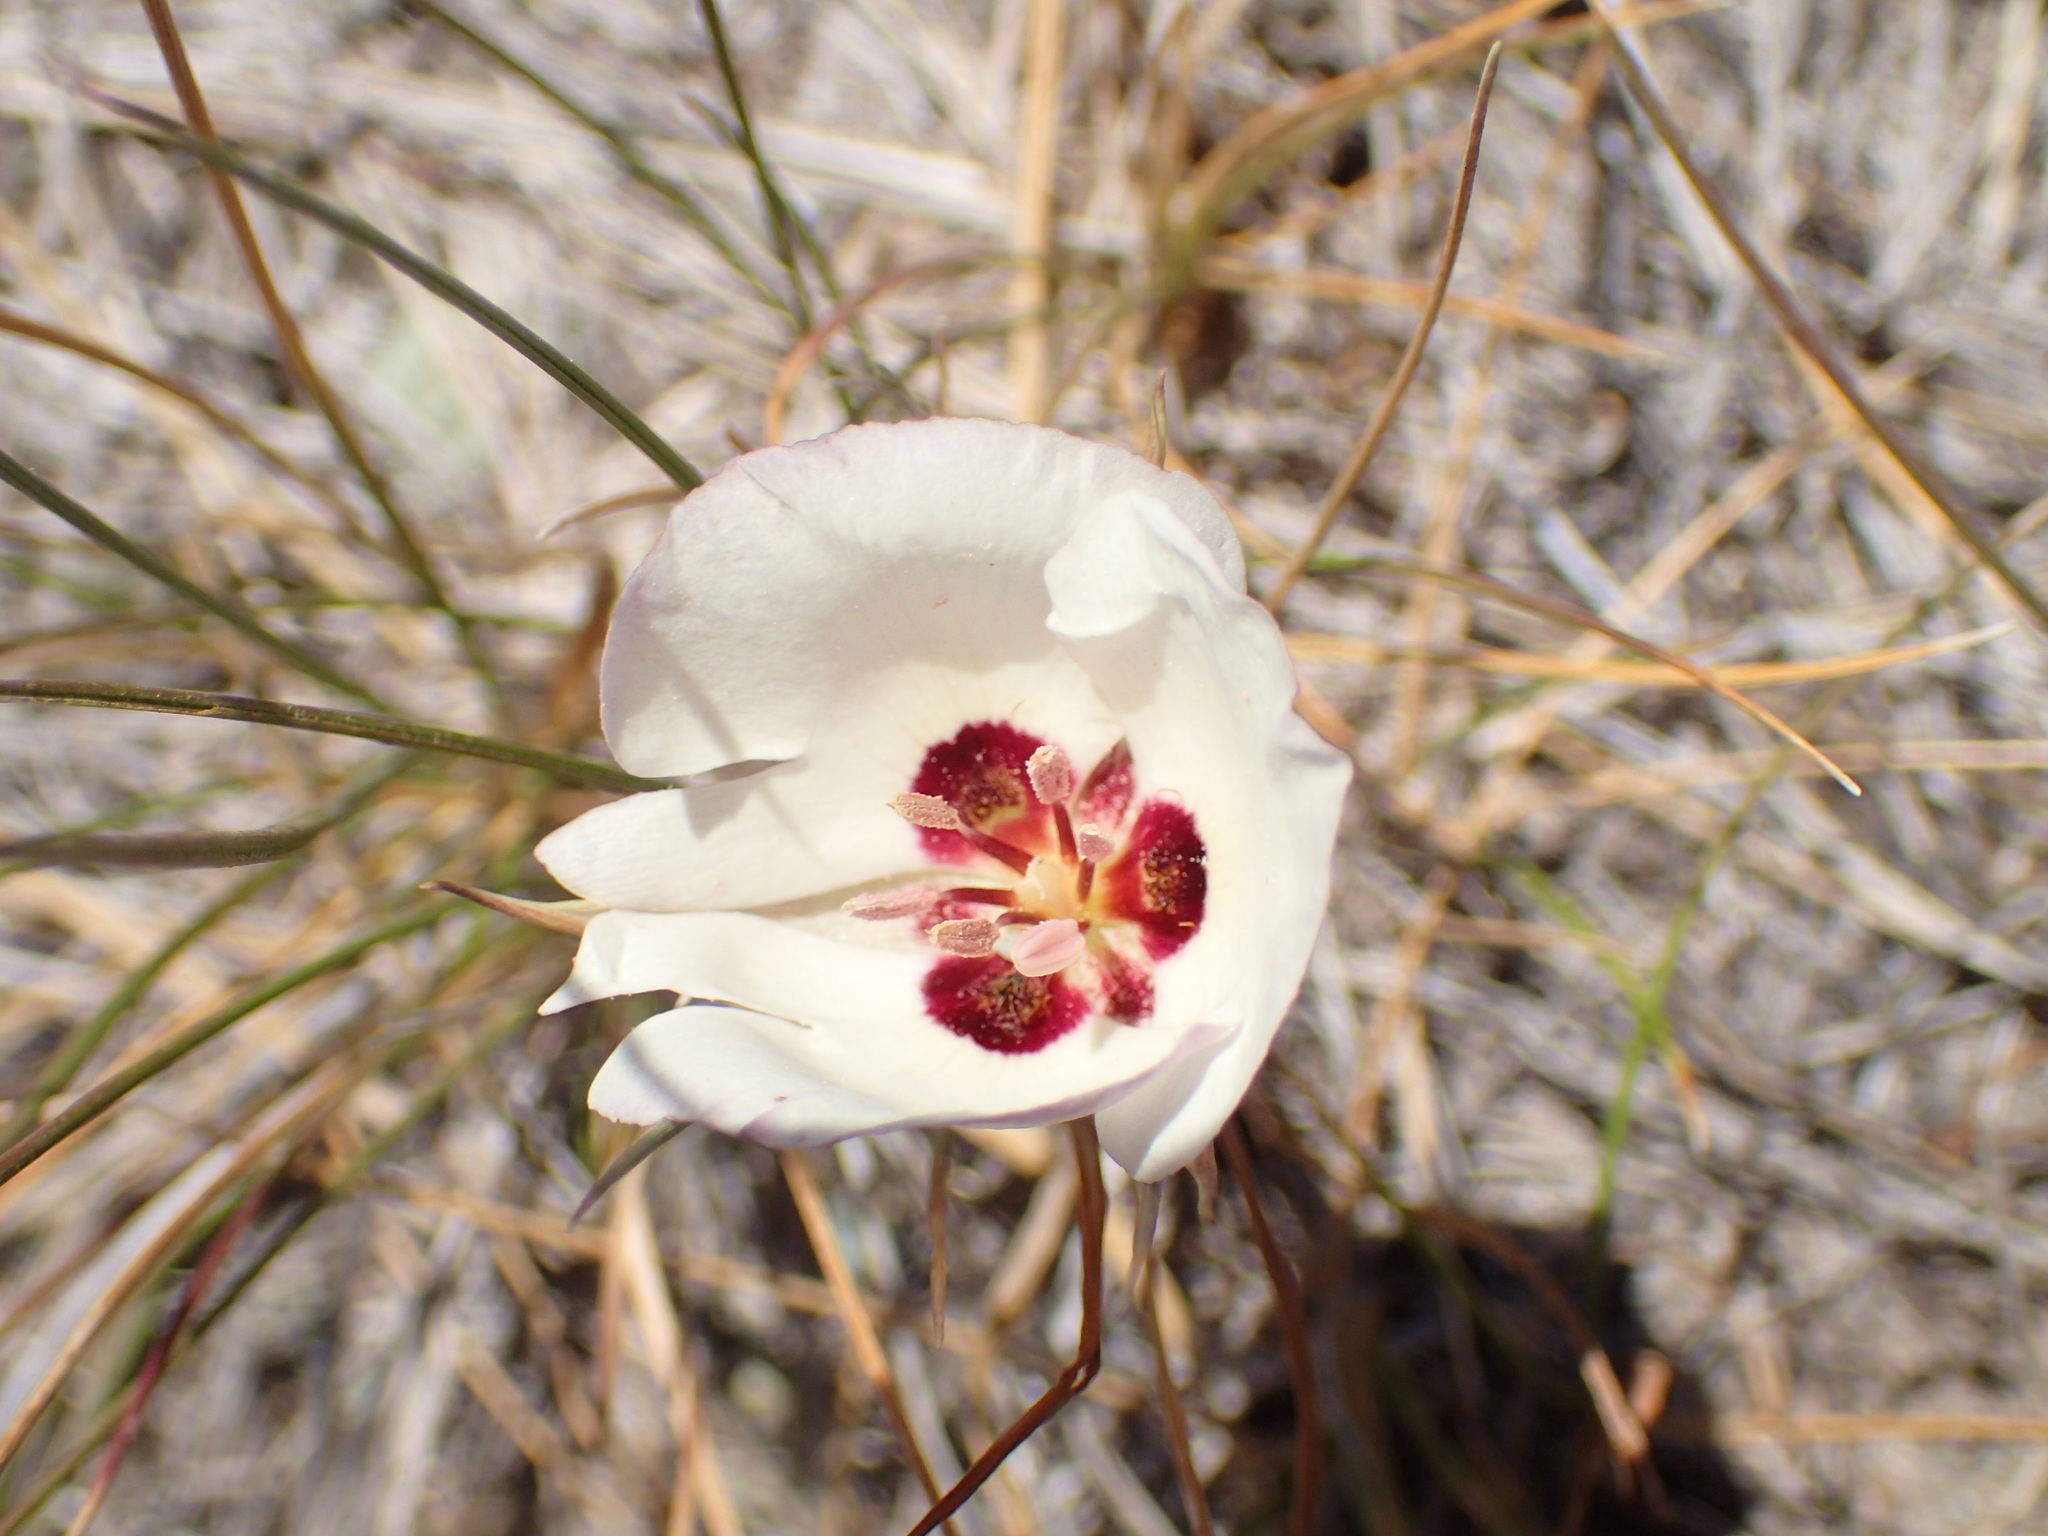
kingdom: Plantae
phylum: Tracheophyta
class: Liliopsida
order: Liliales
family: Liliaceae
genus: Calochortus
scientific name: Calochortus catalinae
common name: Catalina mariposa-lily
